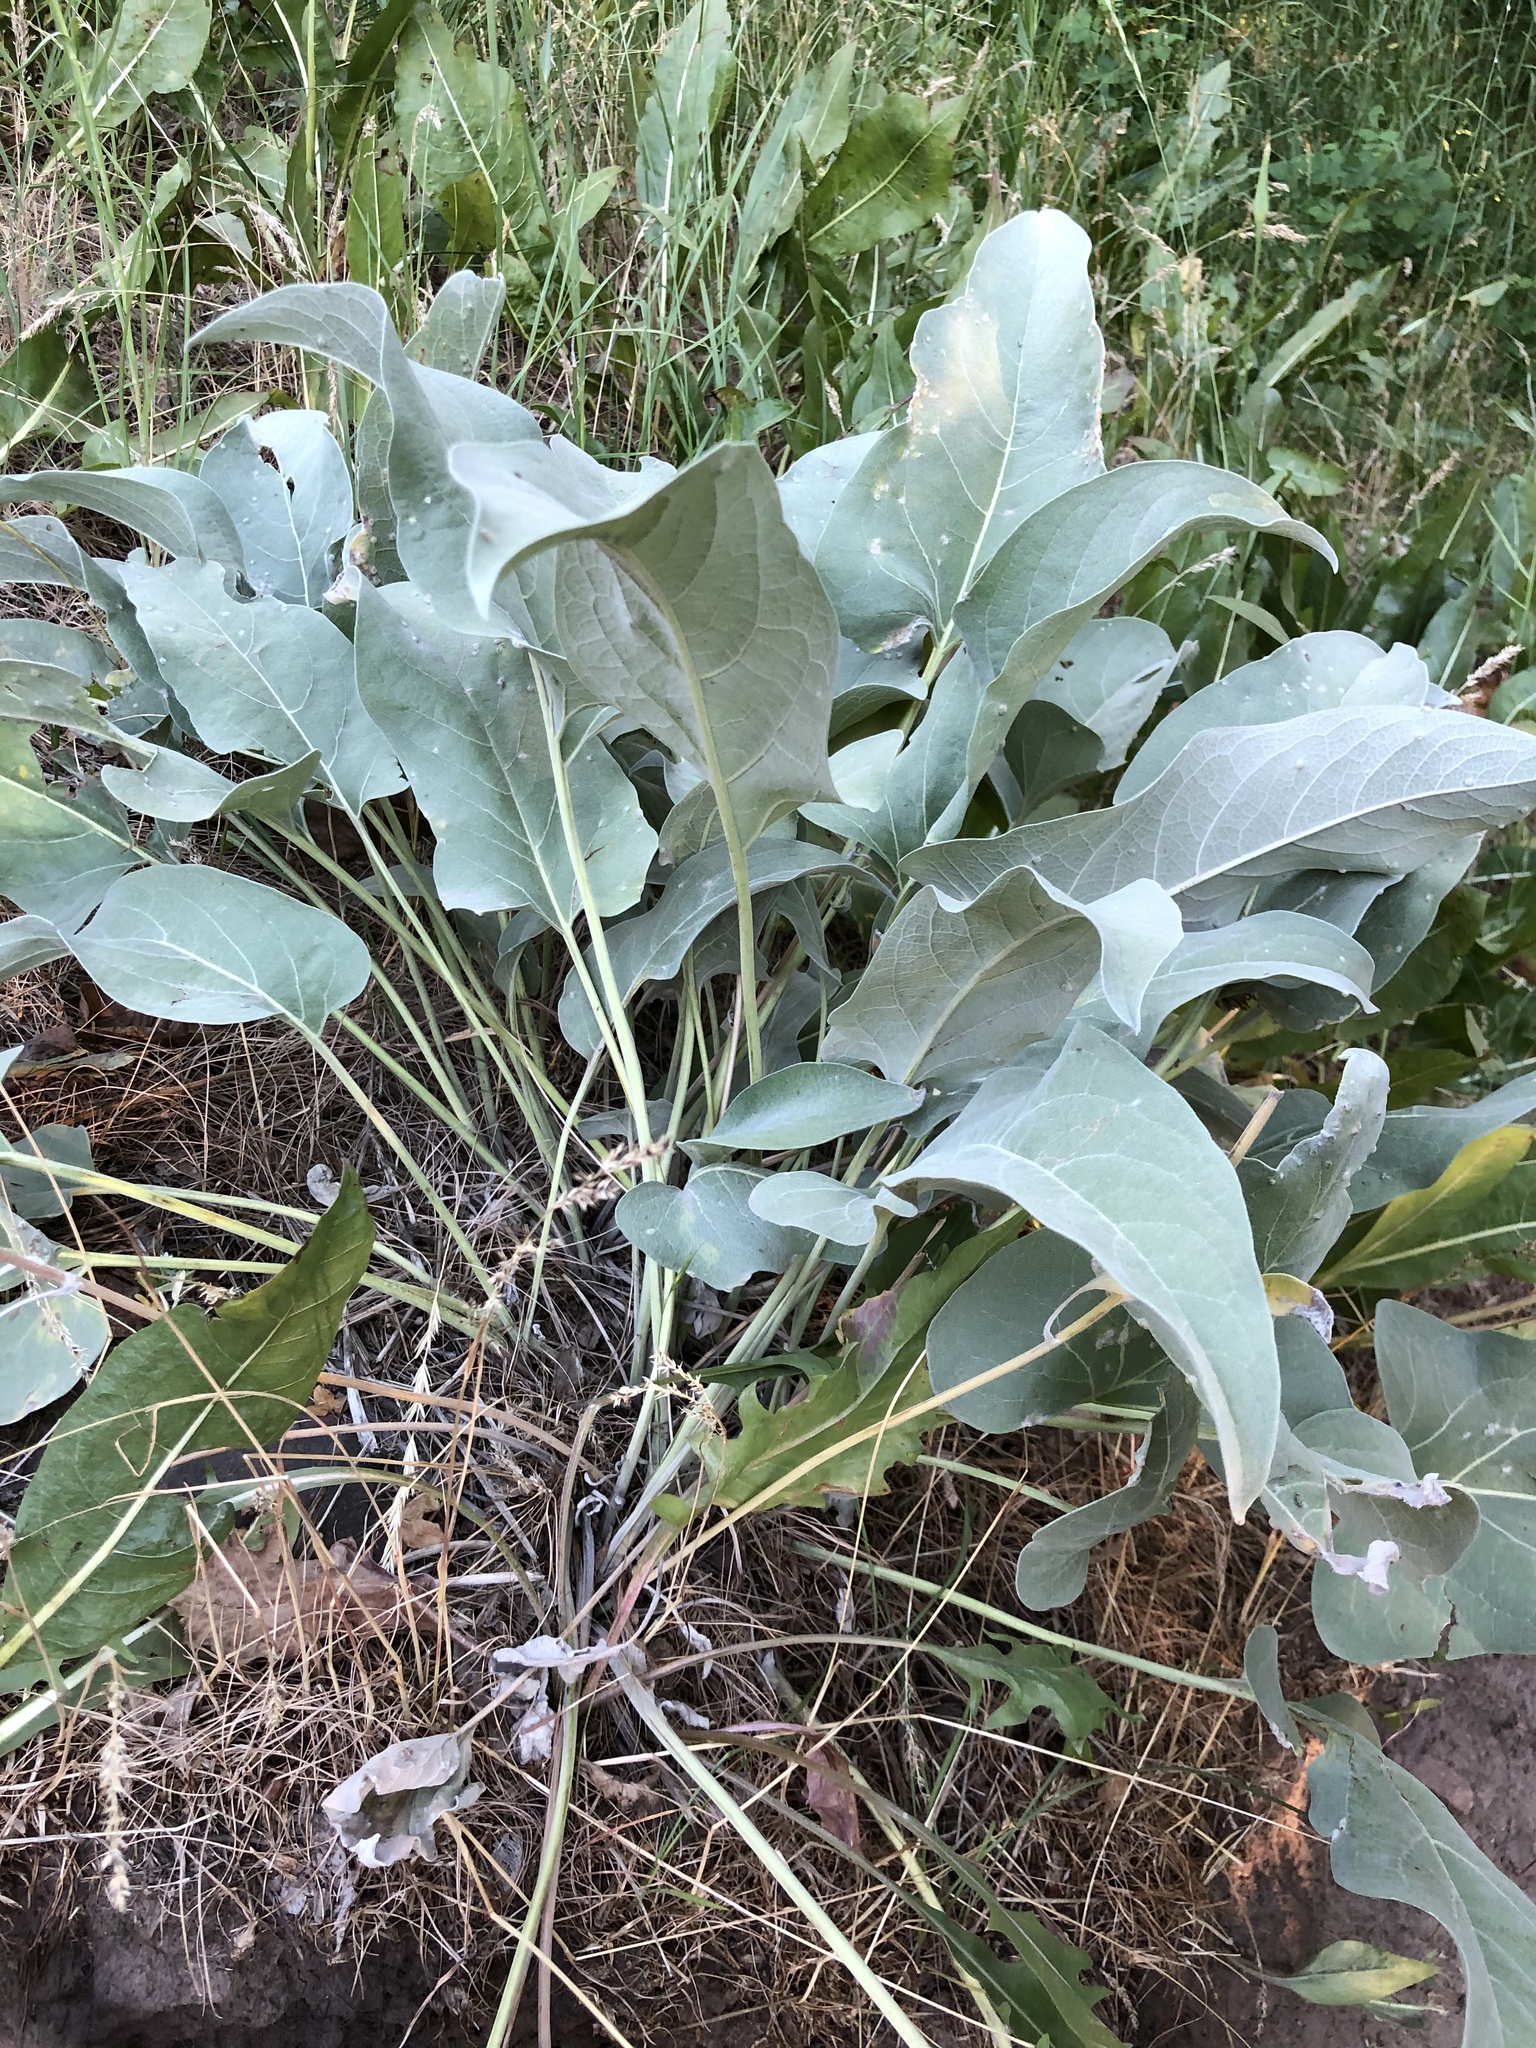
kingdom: Plantae
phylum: Tracheophyta
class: Magnoliopsida
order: Asterales
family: Asteraceae
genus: Wyethia
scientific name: Wyethia sagittata
